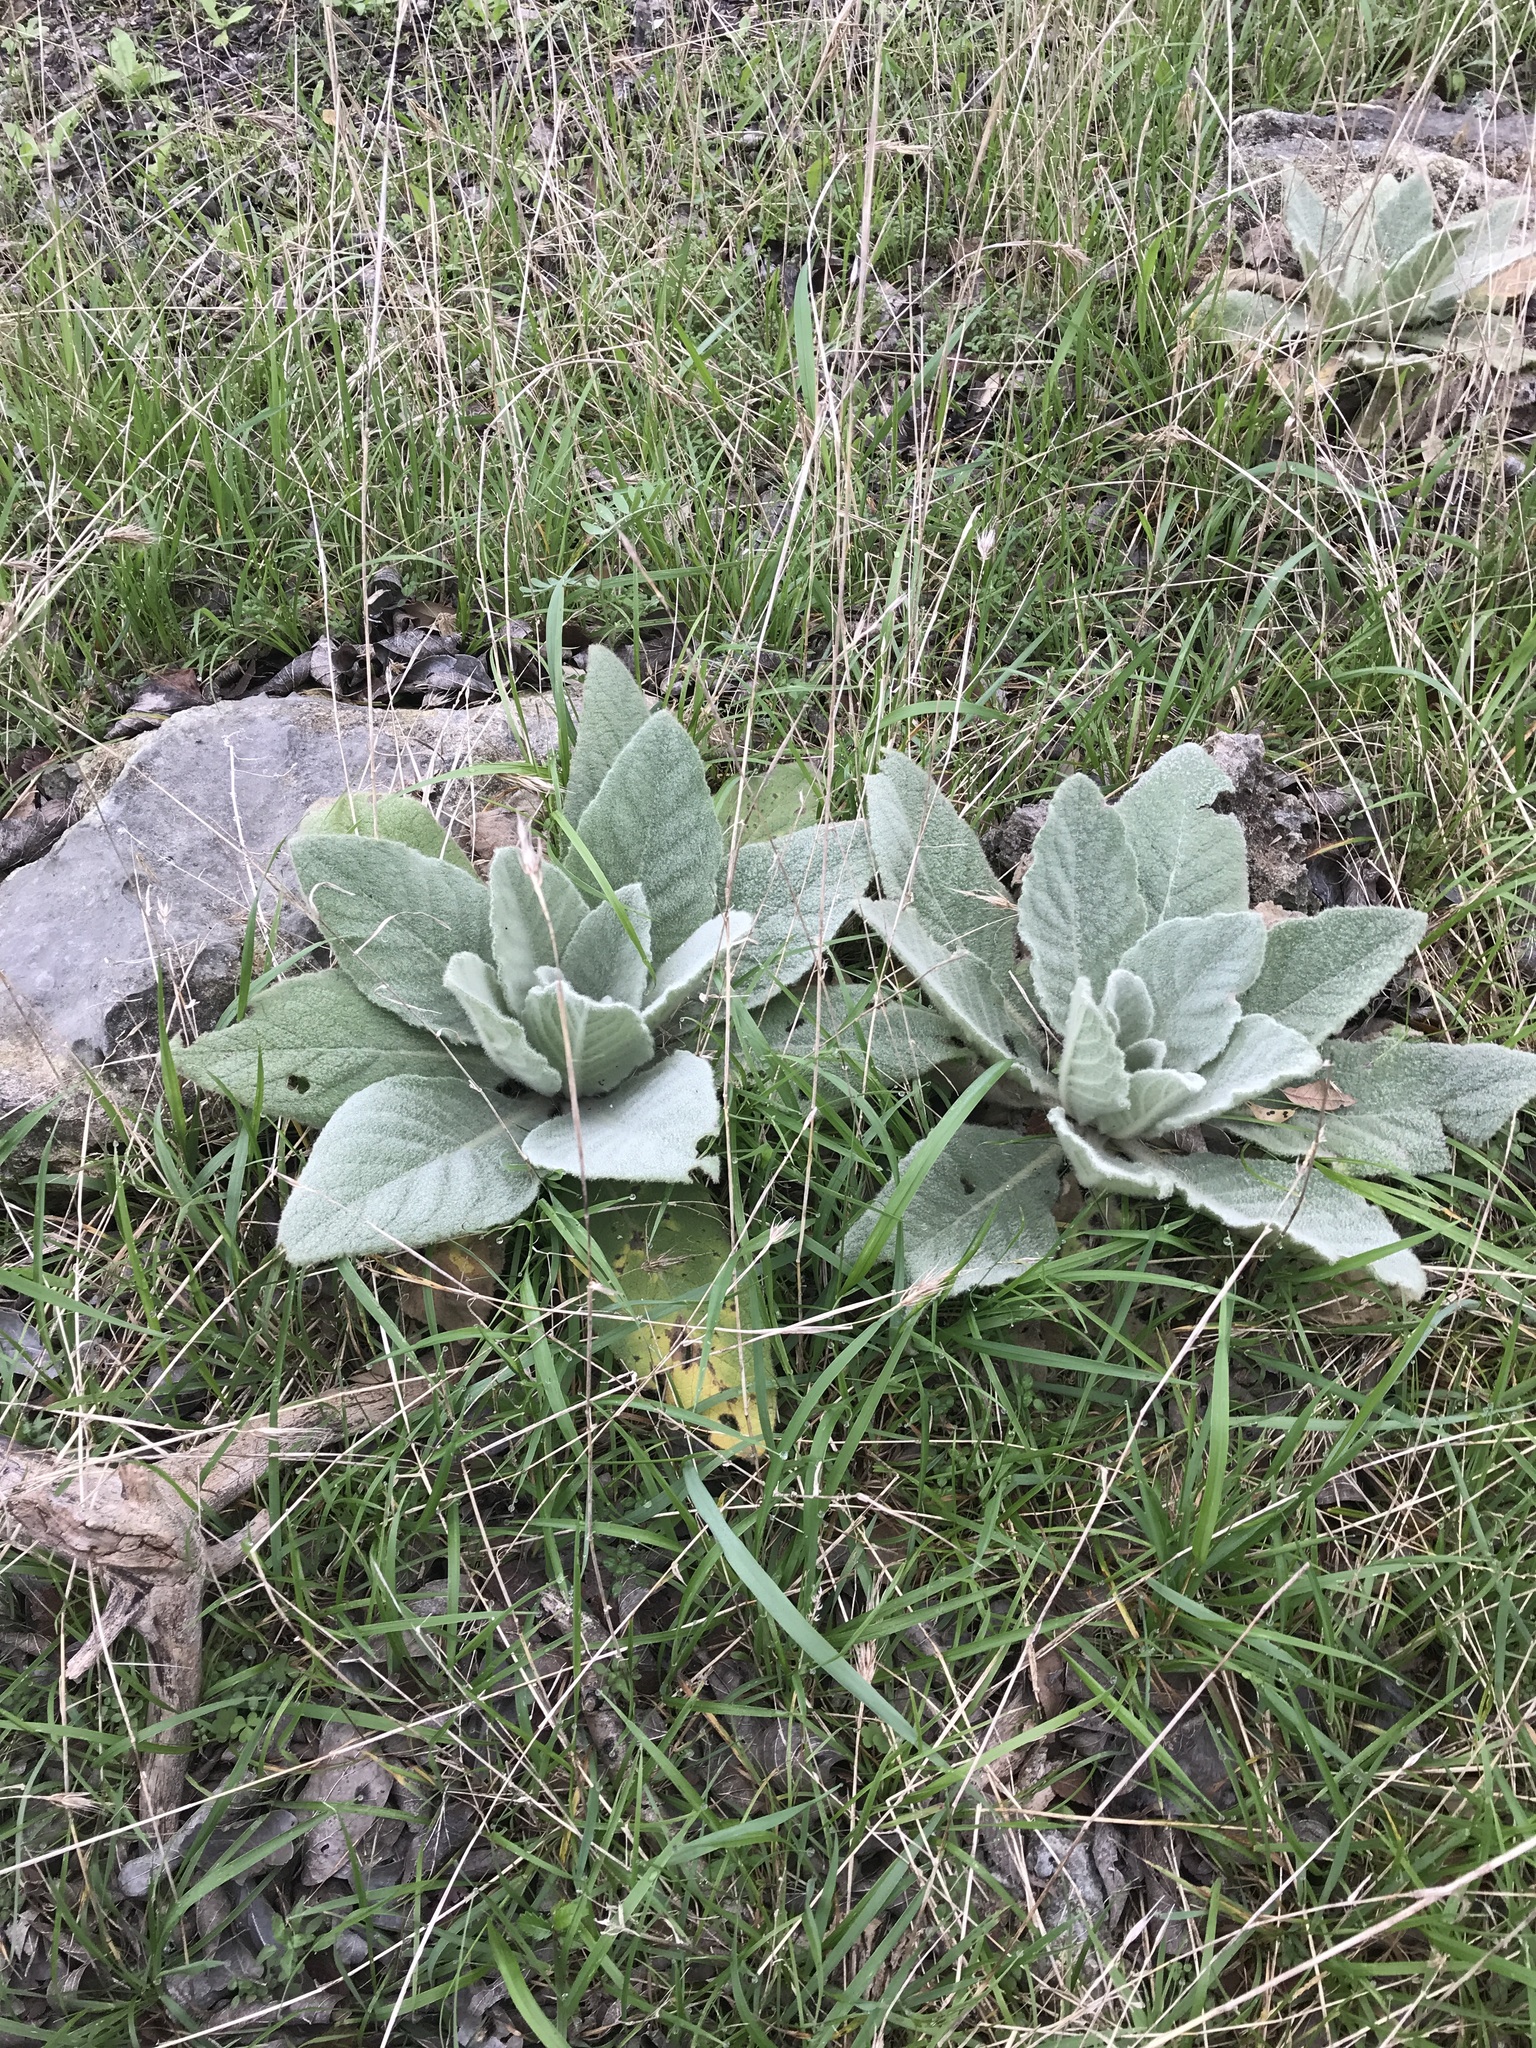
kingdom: Plantae
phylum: Tracheophyta
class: Magnoliopsida
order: Lamiales
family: Scrophulariaceae
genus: Verbascum
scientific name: Verbascum thapsus
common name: Common mullein
